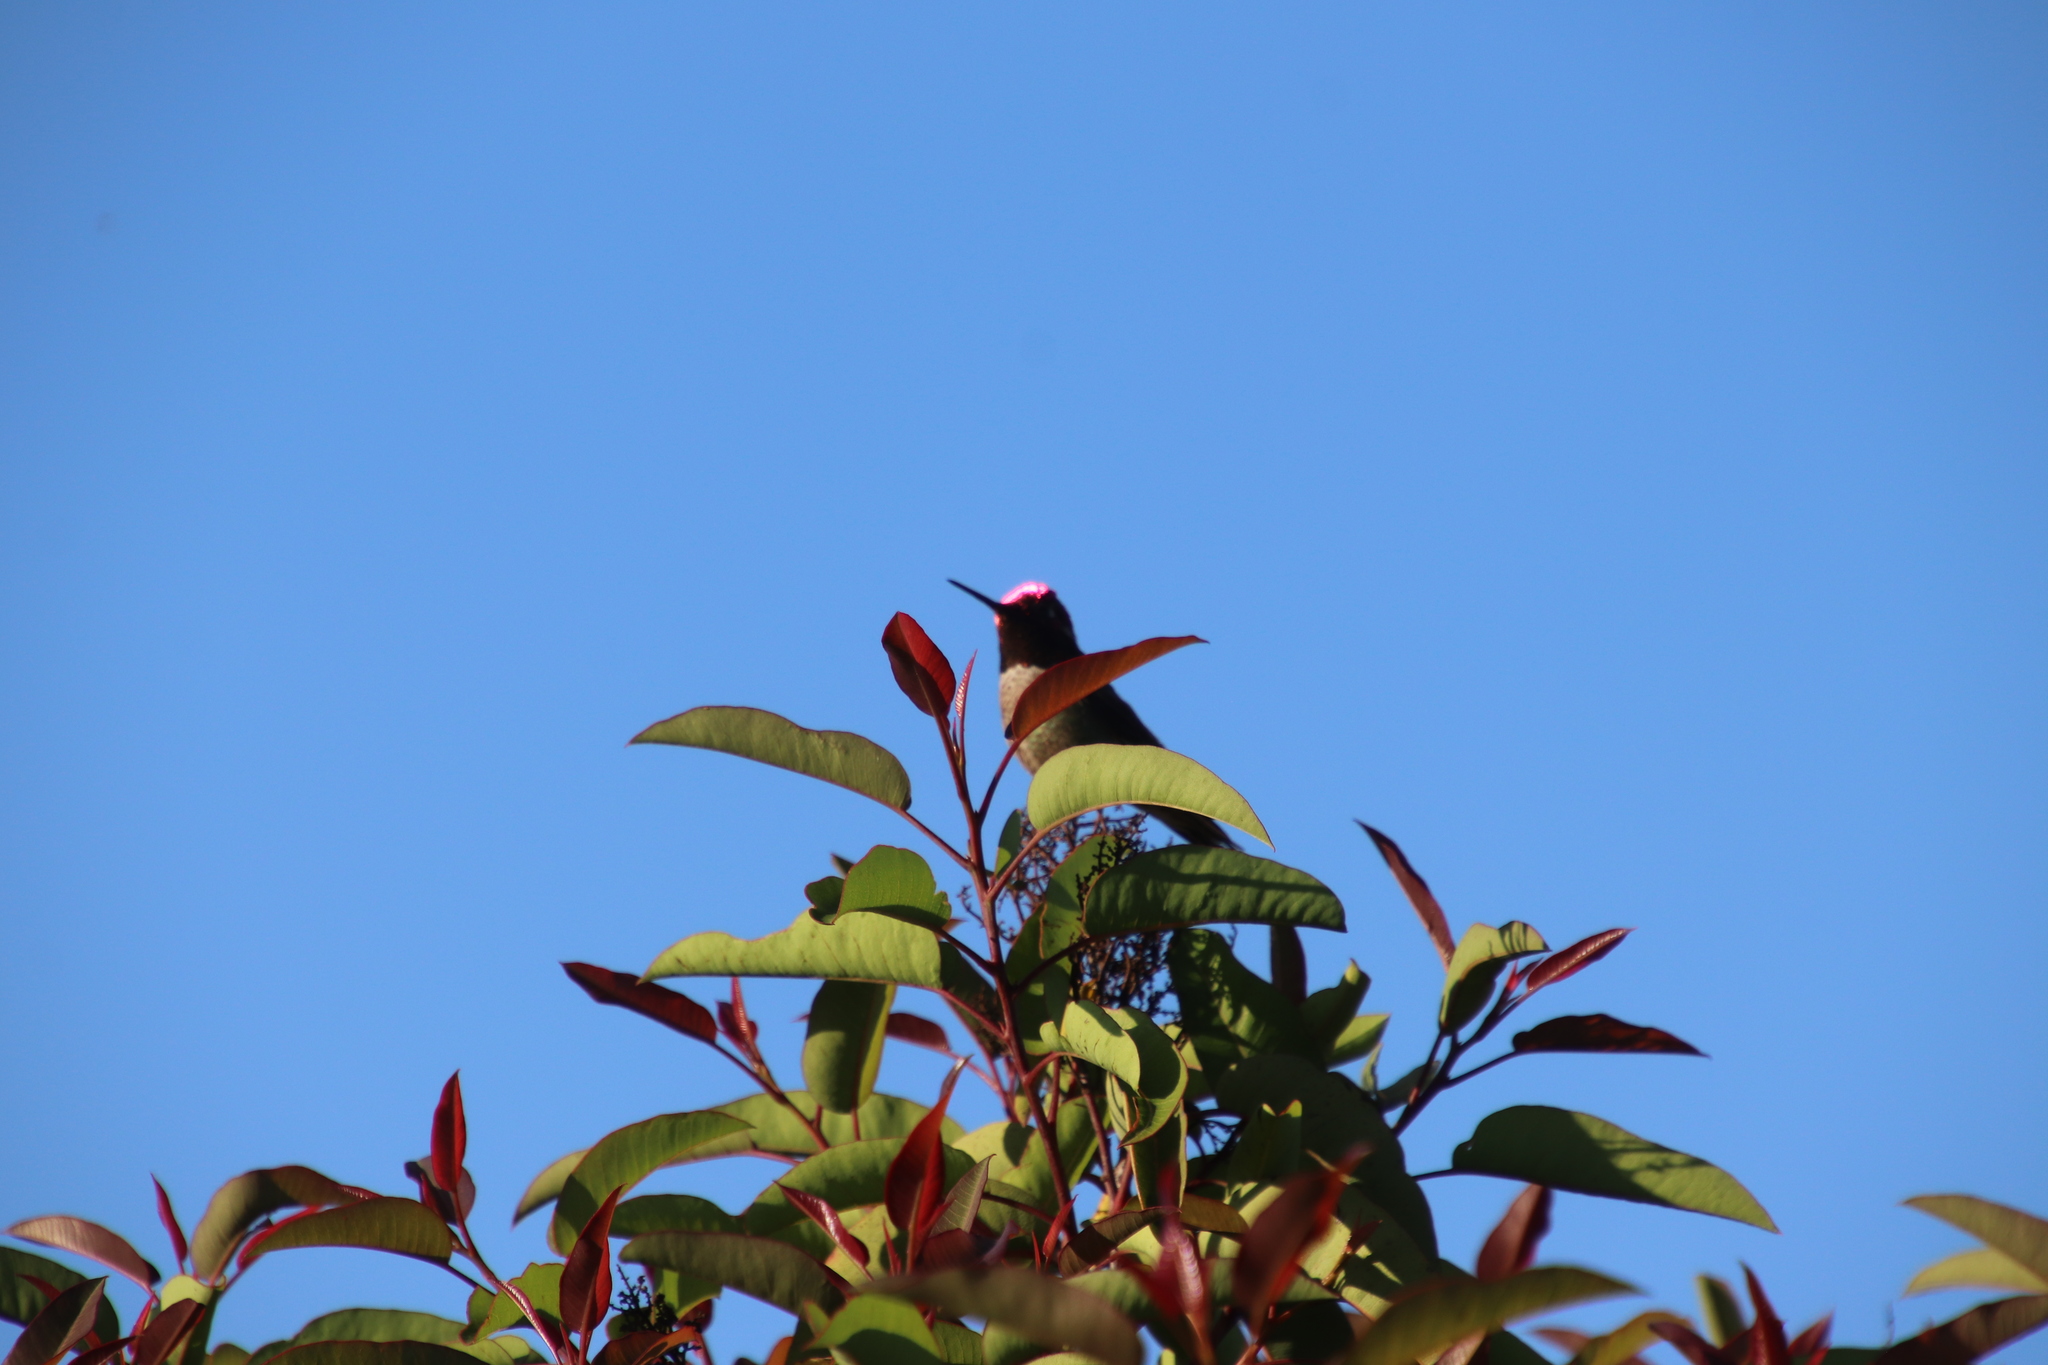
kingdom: Animalia
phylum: Chordata
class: Aves
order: Apodiformes
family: Trochilidae
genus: Calypte
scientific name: Calypte anna
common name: Anna's hummingbird
